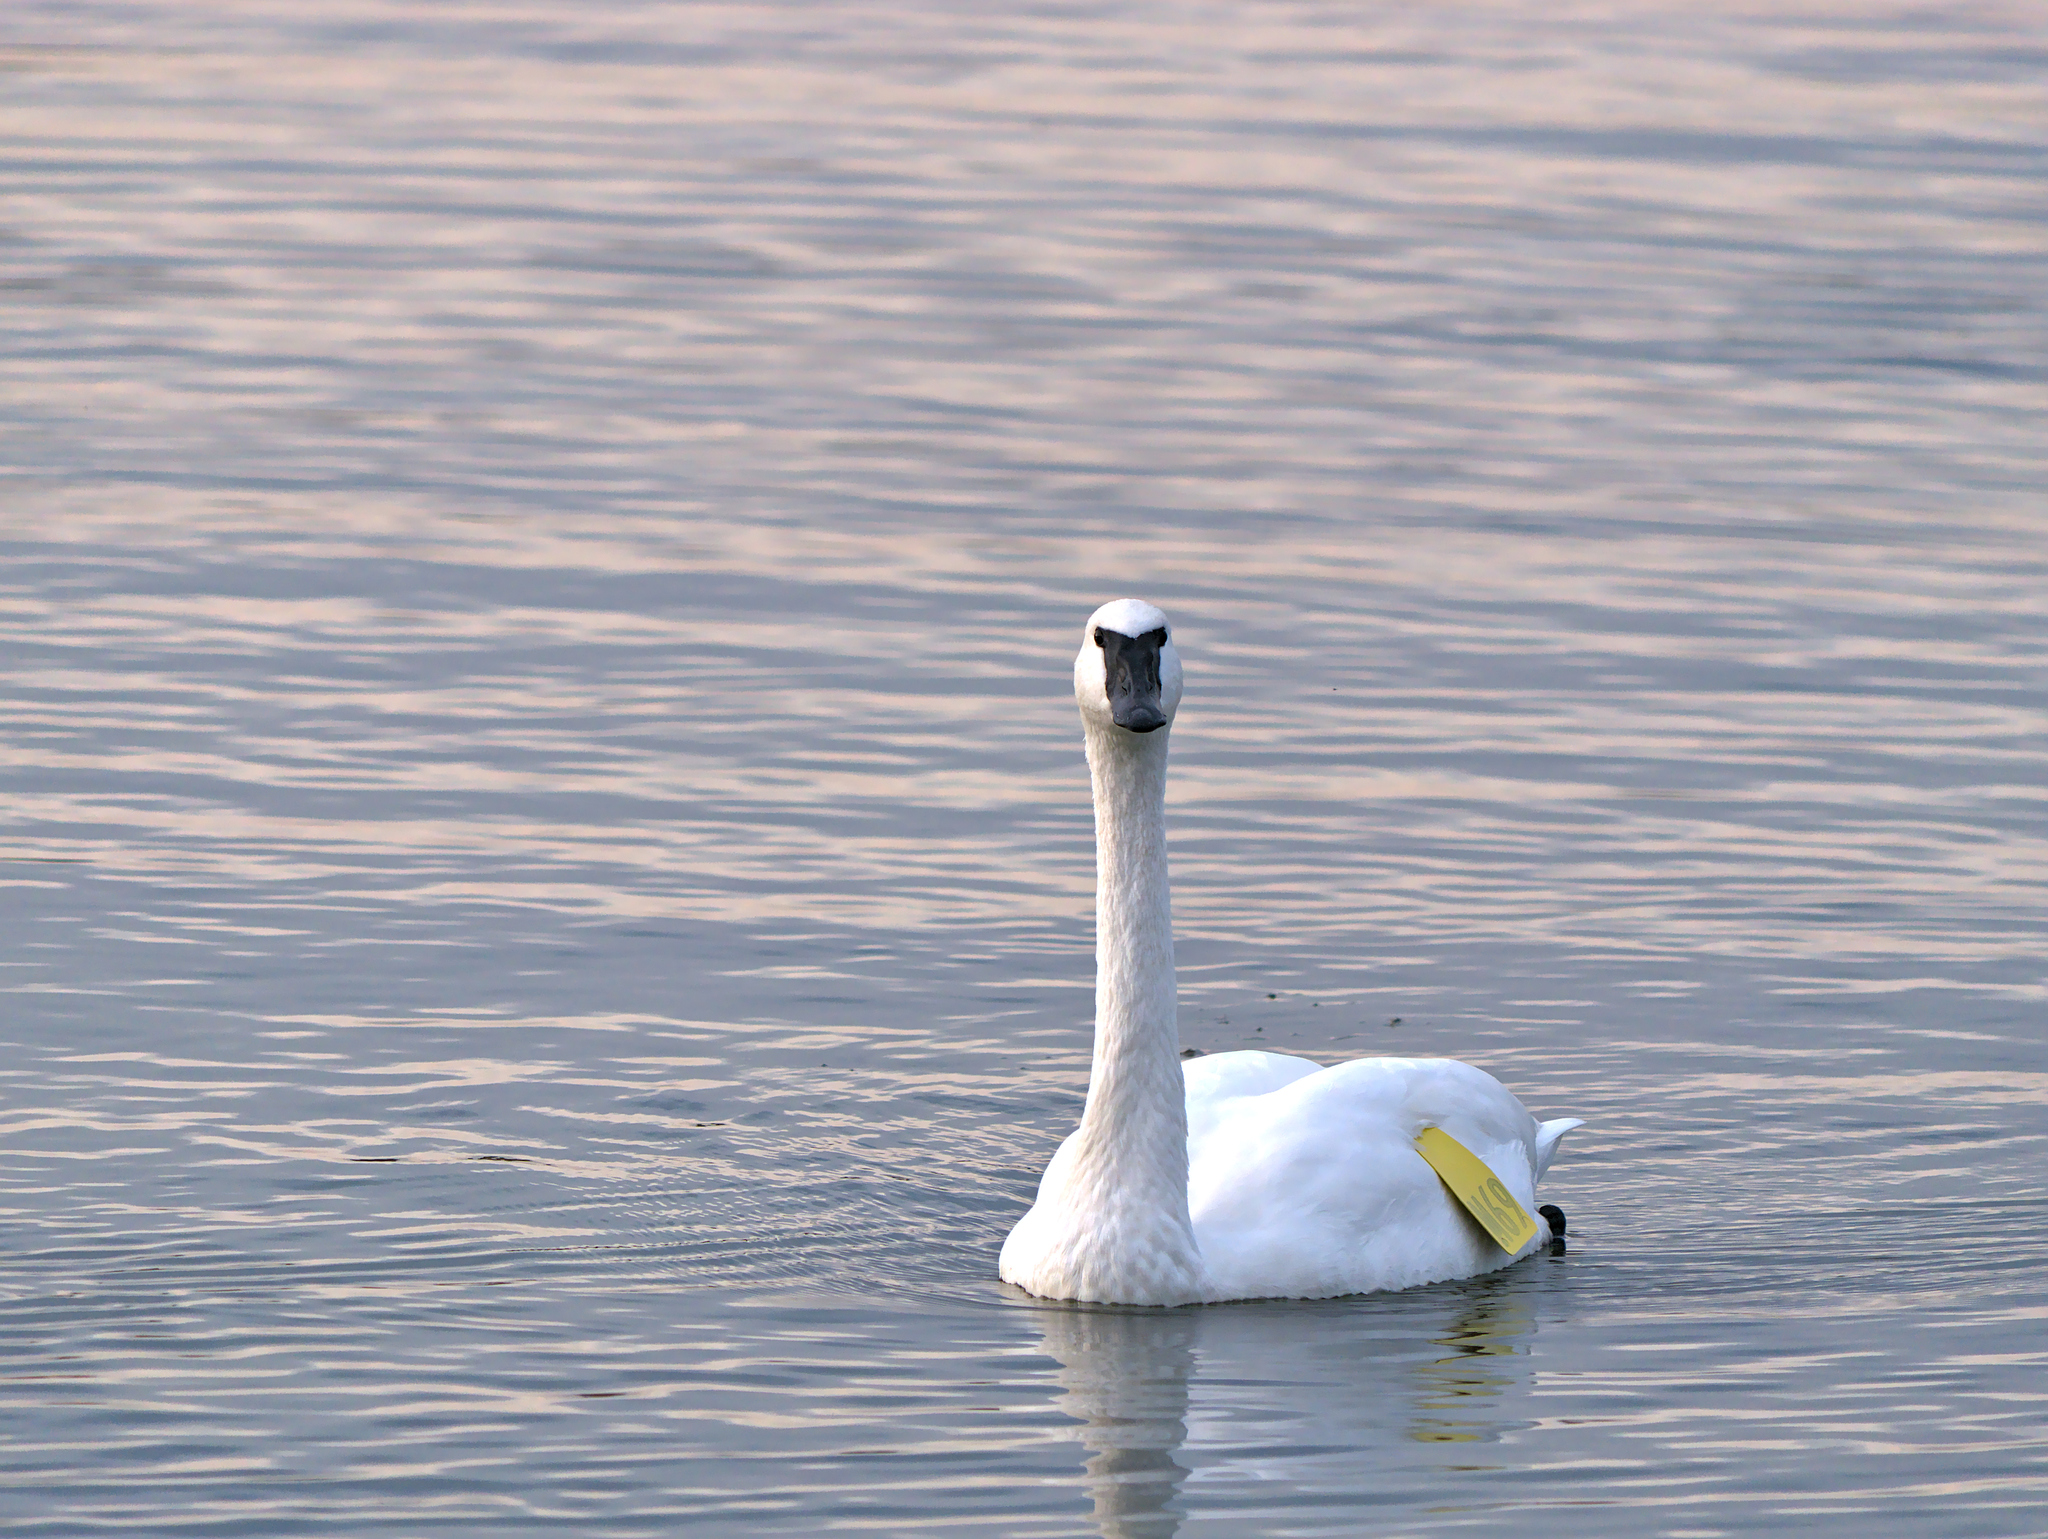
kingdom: Animalia
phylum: Chordata
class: Aves
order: Anseriformes
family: Anatidae
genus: Cygnus
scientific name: Cygnus buccinator
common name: Trumpeter swan
